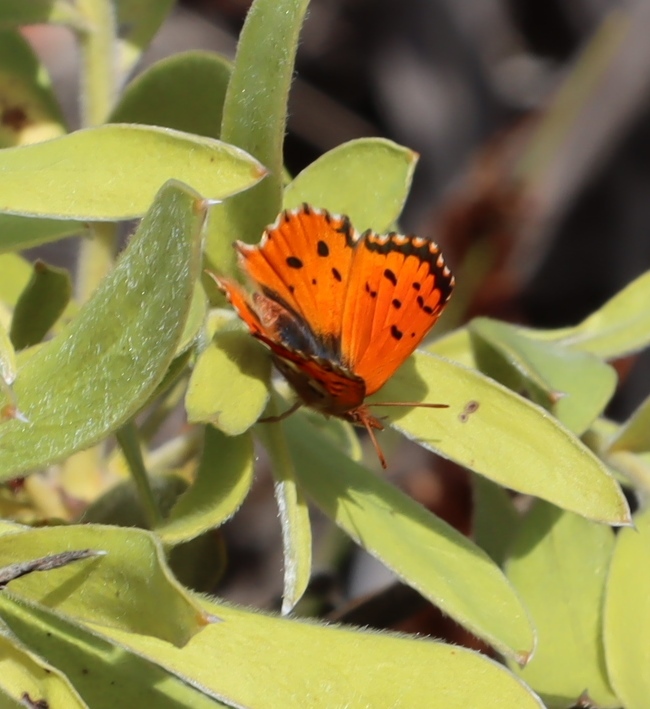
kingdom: Animalia
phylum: Arthropoda
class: Insecta
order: Lepidoptera
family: Lycaenidae
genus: Chrysoritis
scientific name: Chrysoritis
